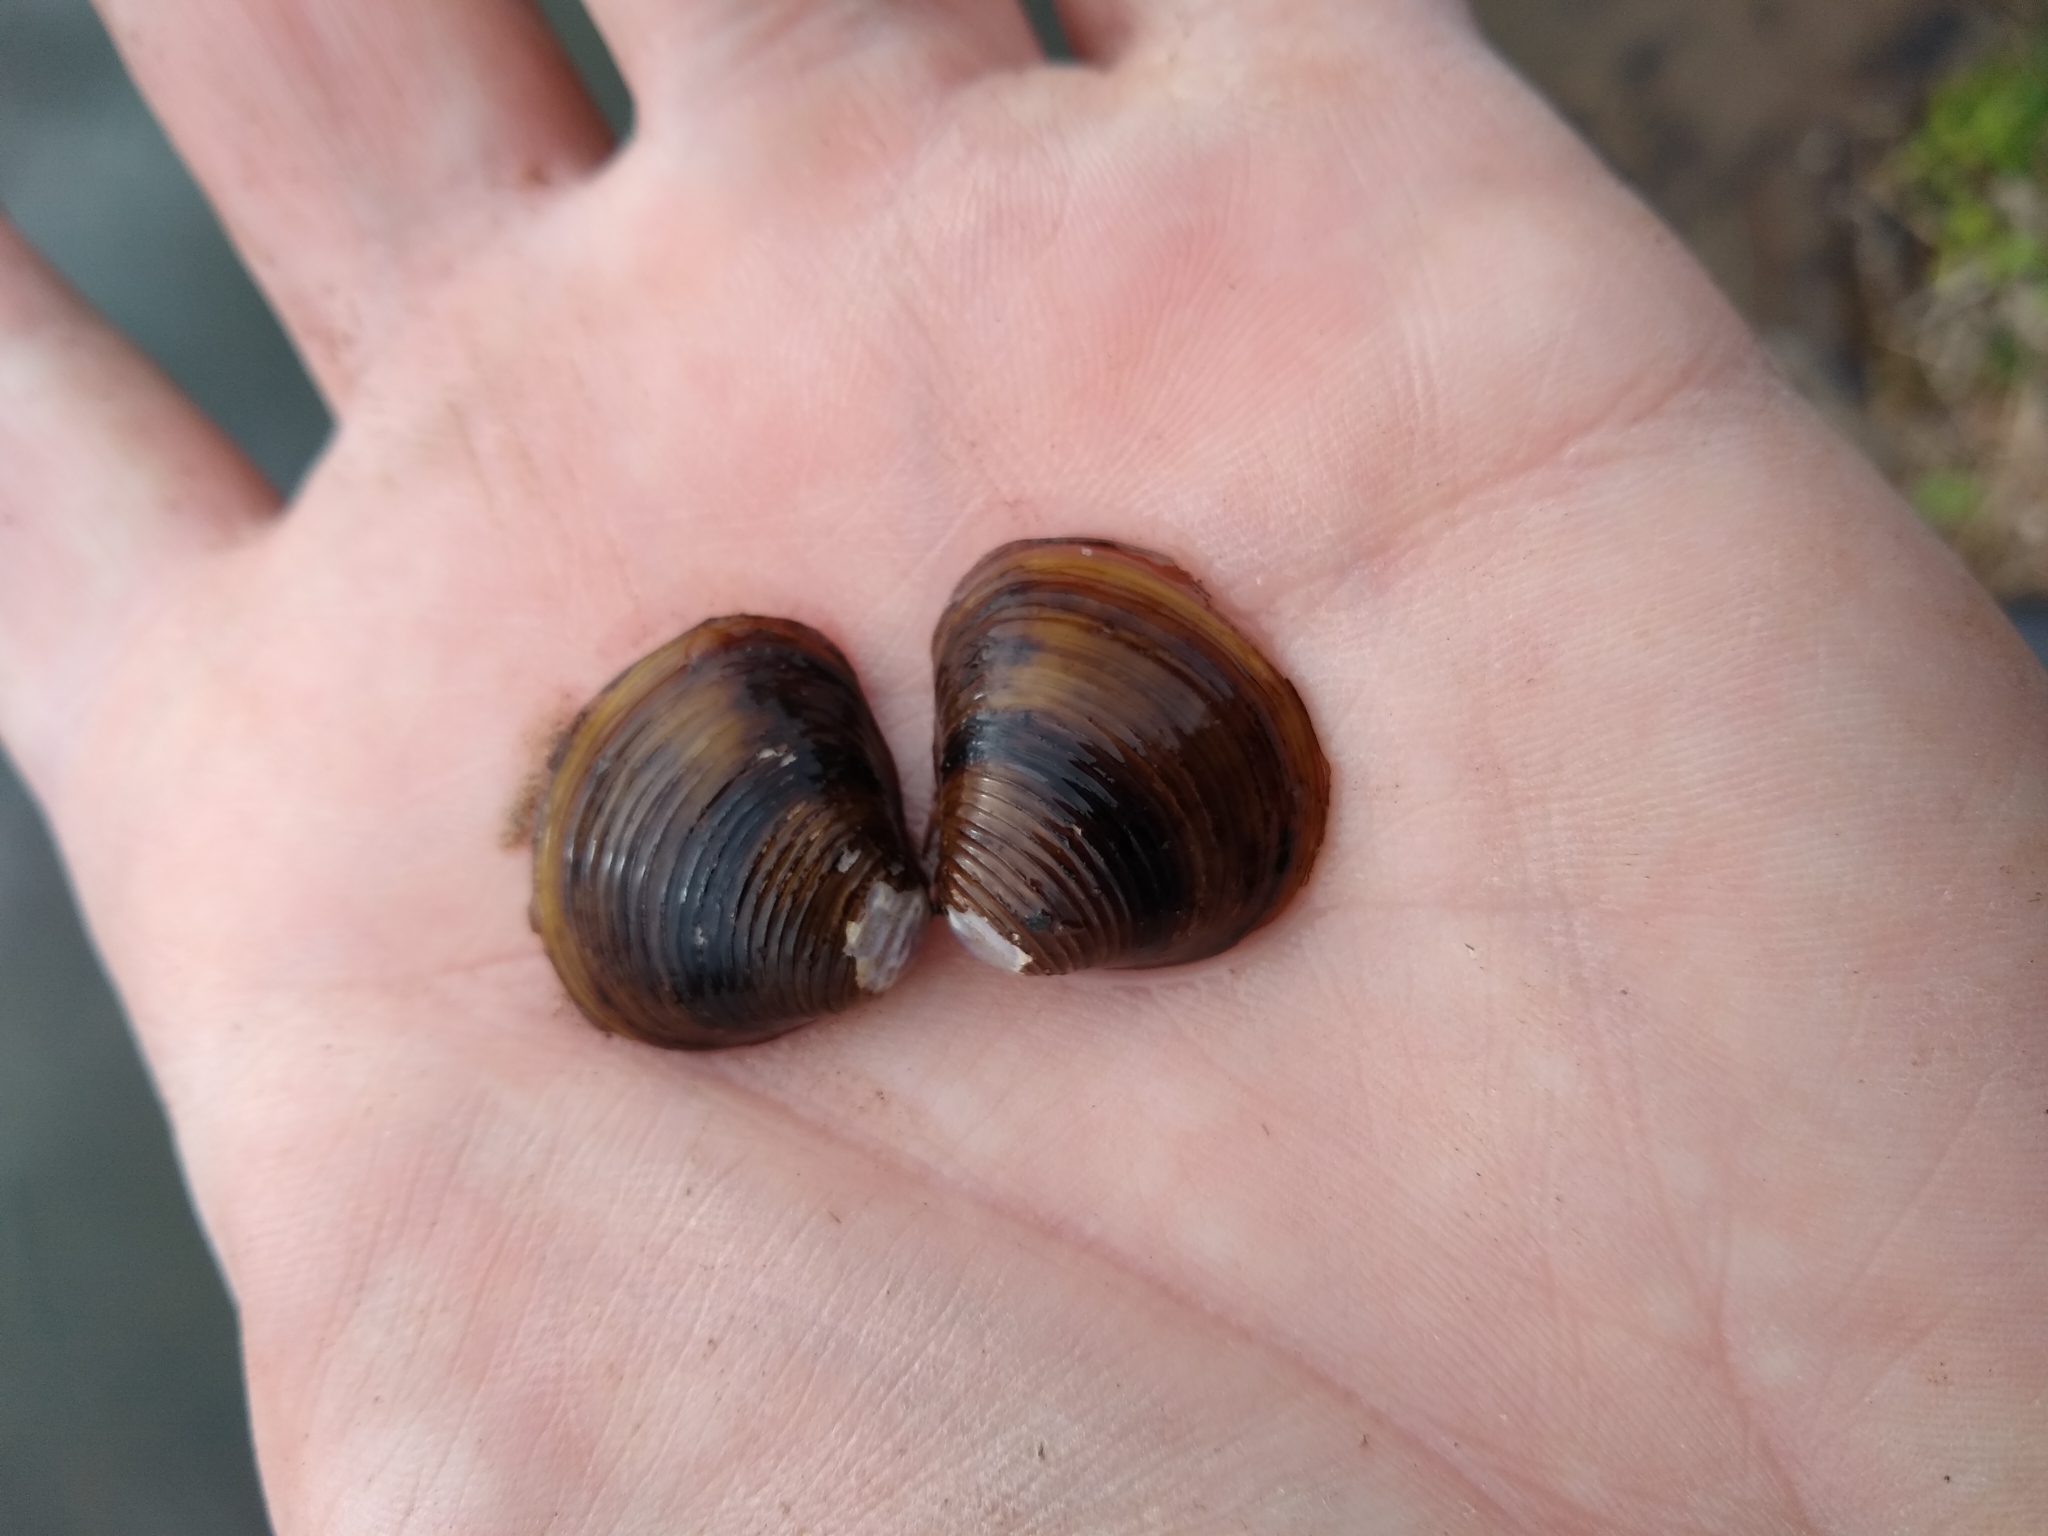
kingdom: Animalia
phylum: Mollusca
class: Bivalvia
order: Venerida
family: Cyrenidae
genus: Corbicula
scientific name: Corbicula fluminea
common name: Asian clam
